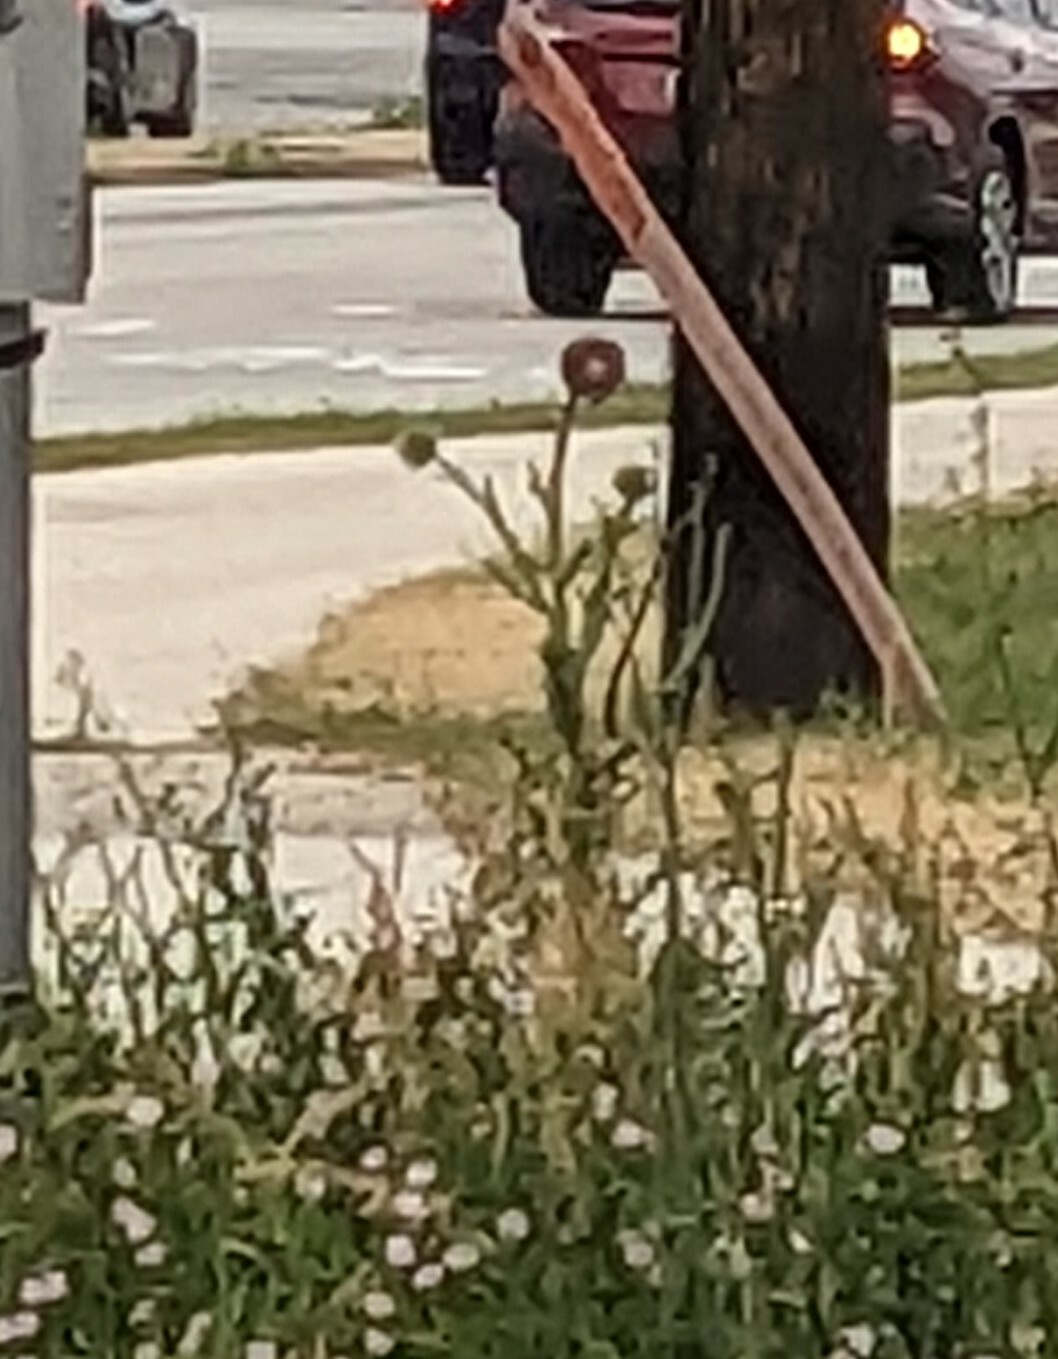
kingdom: Plantae
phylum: Tracheophyta
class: Magnoliopsida
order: Asterales
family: Asteraceae
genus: Carduus
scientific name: Carduus nutans
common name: Musk thistle
